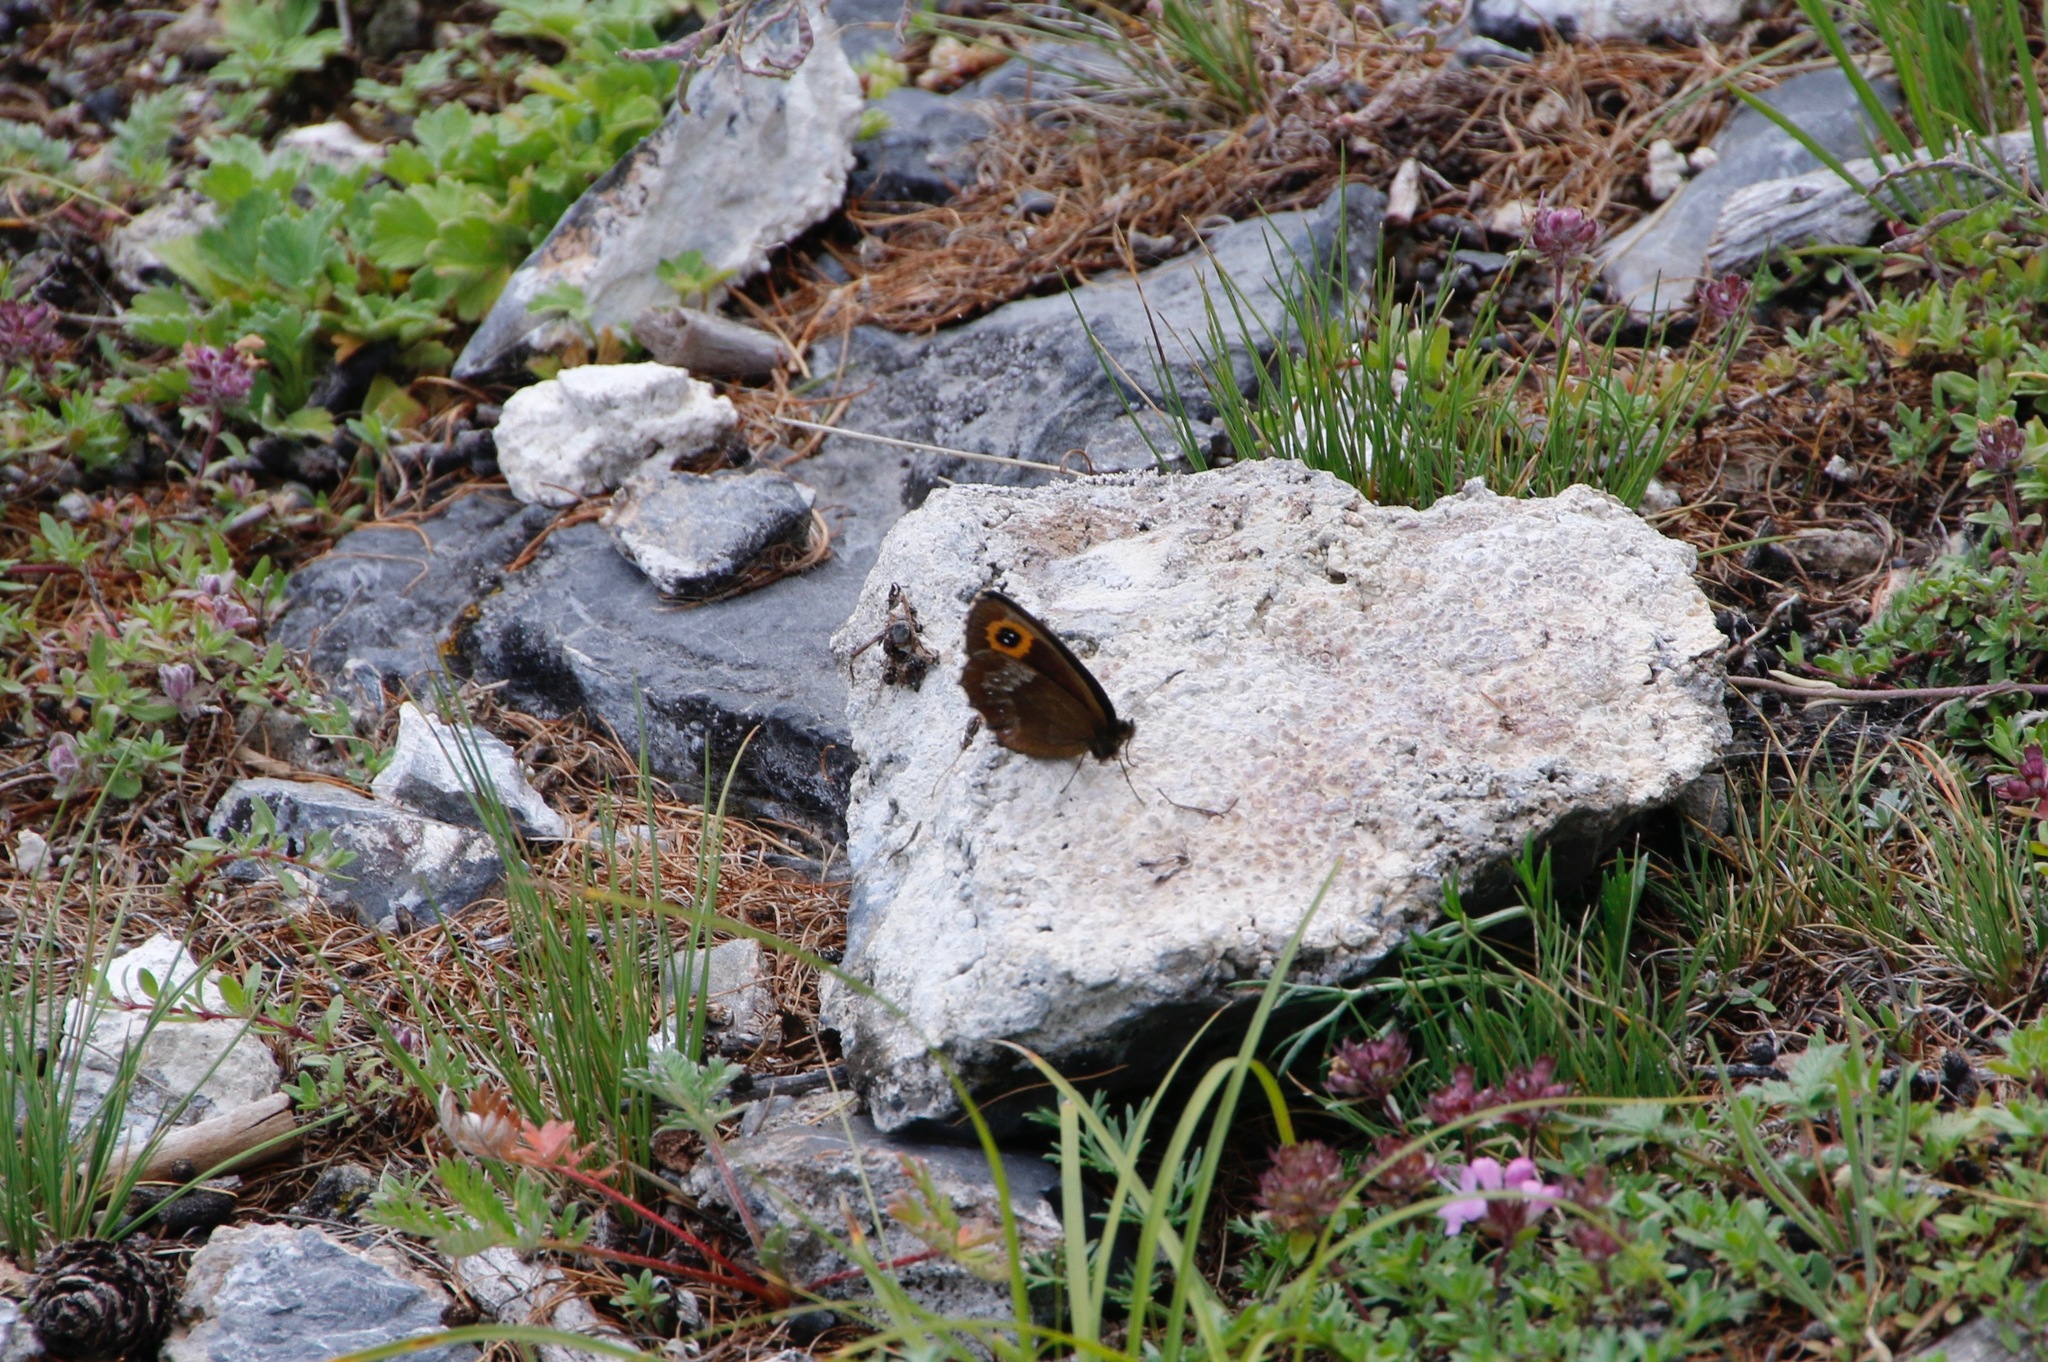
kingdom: Animalia
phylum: Arthropoda
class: Insecta
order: Lepidoptera
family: Nymphalidae
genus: Erebia
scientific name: Erebia edda
